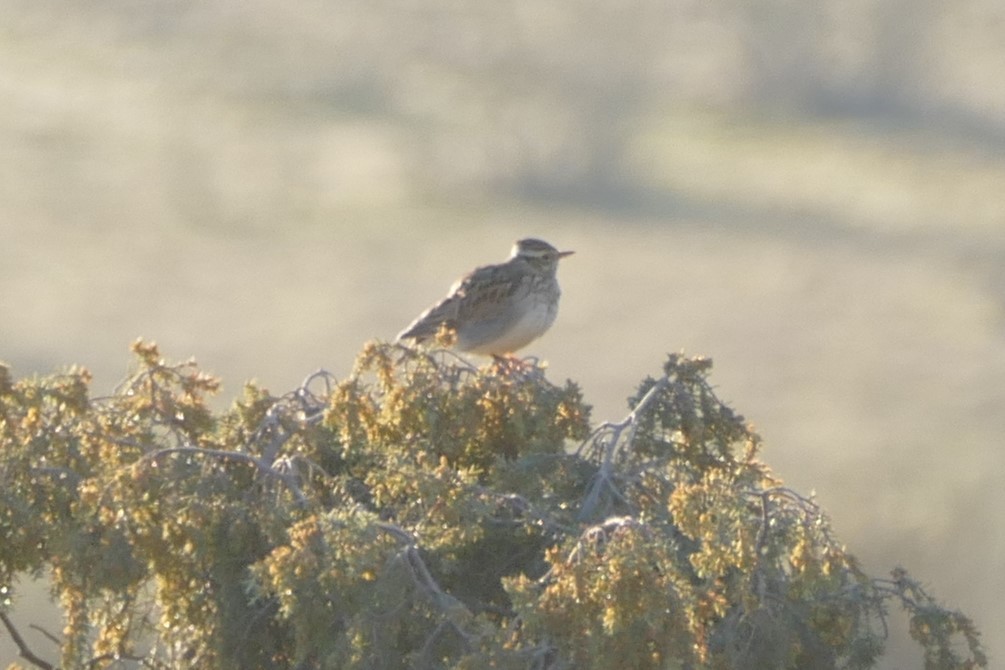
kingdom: Animalia
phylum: Chordata
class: Aves
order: Passeriformes
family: Alaudidae
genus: Lullula
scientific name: Lullula arborea
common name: Woodlark
